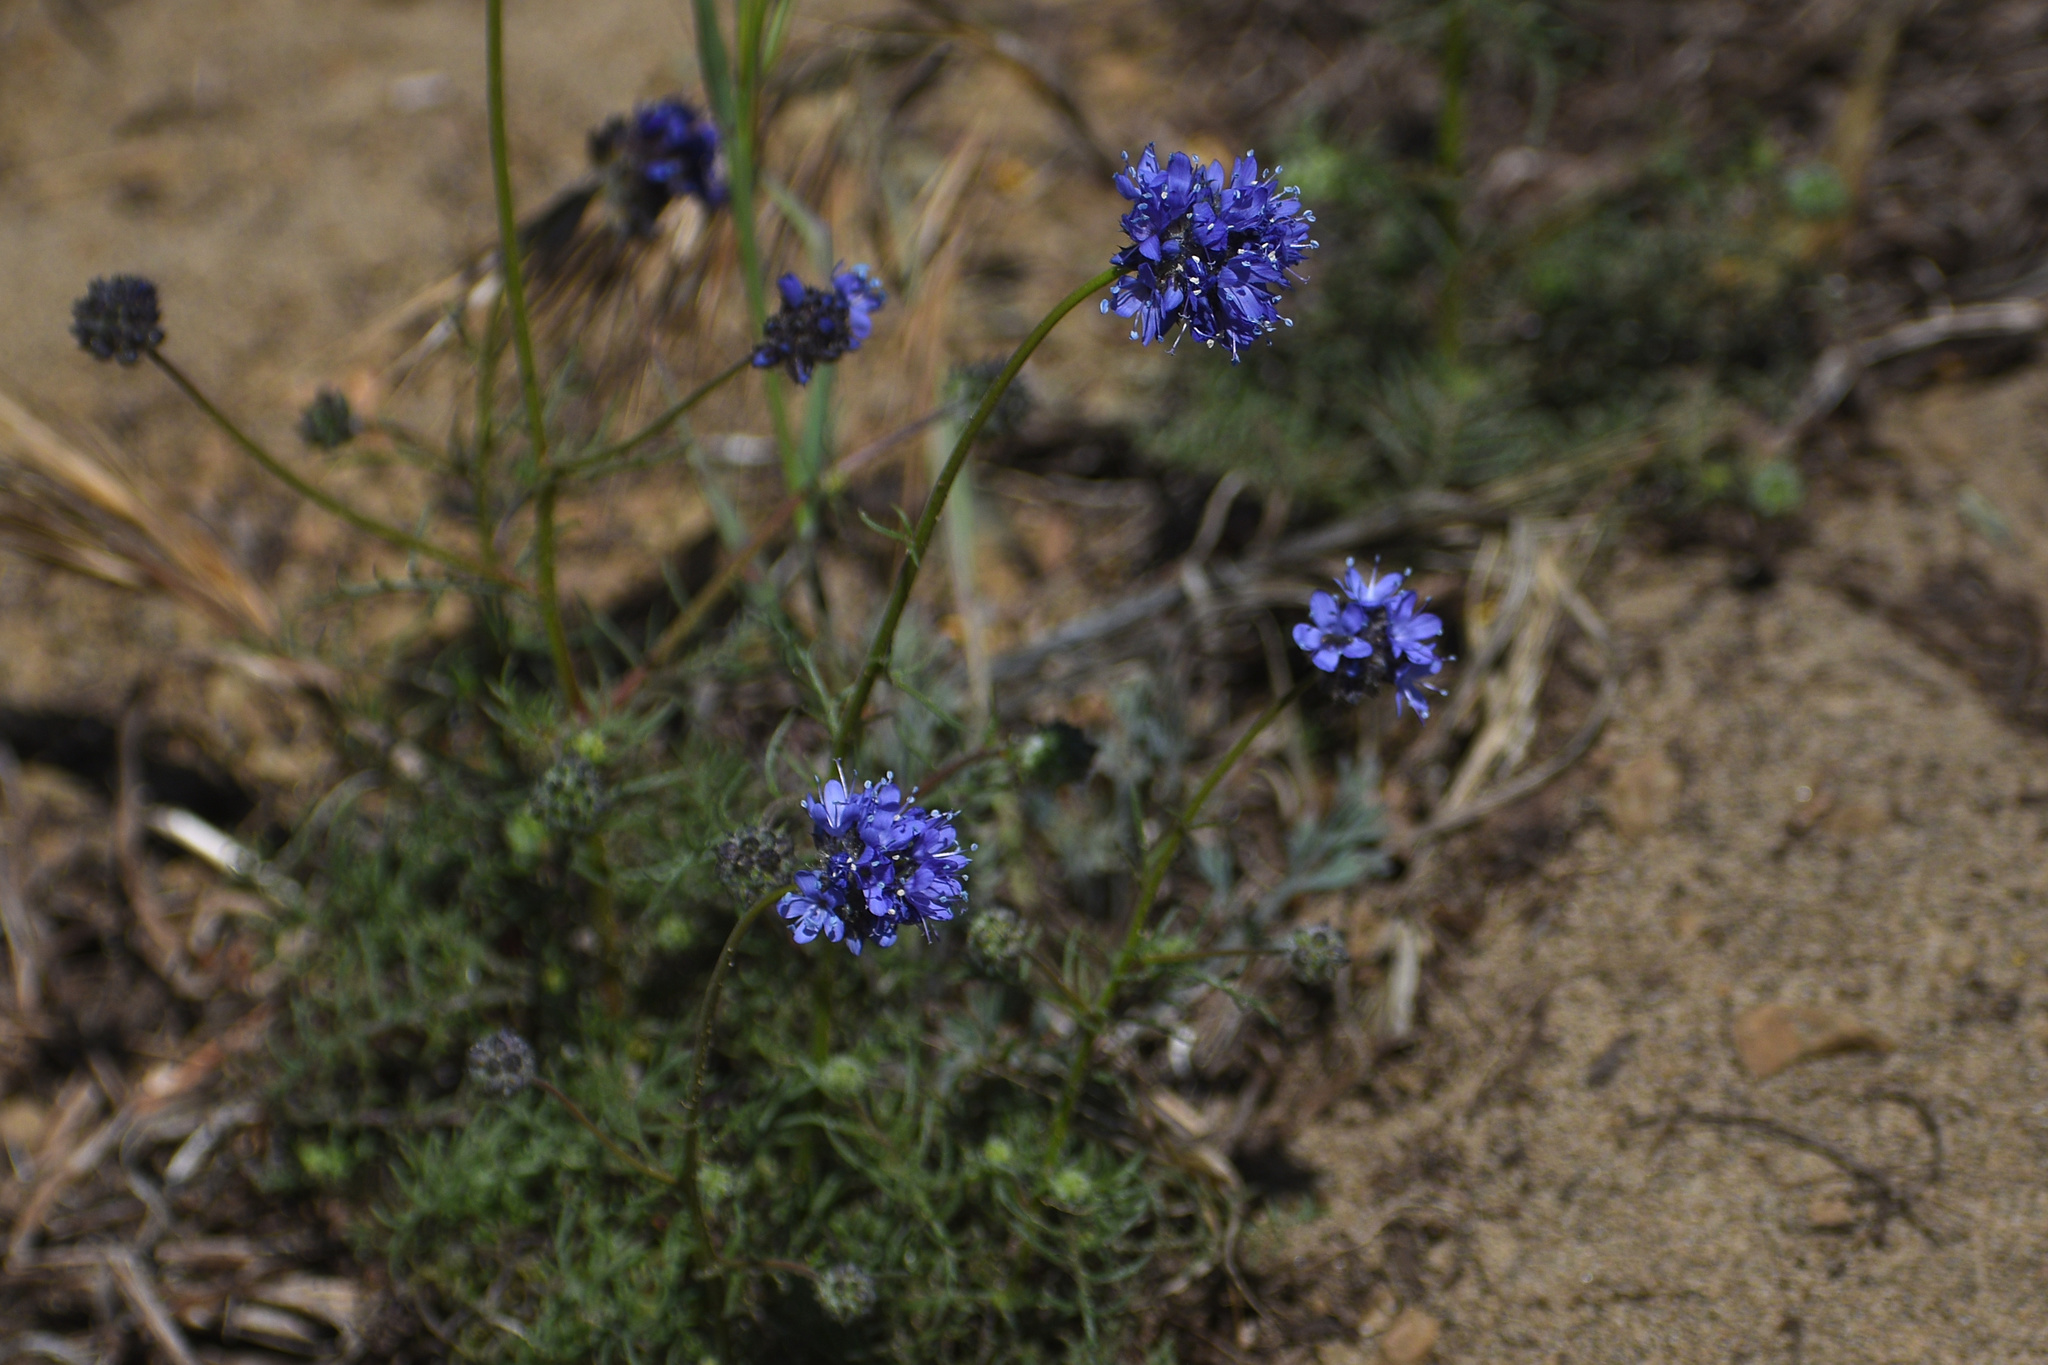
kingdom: Plantae
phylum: Tracheophyta
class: Magnoliopsida
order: Ericales
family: Polemoniaceae
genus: Gilia
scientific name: Gilia capitata
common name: Bluehead gilia
